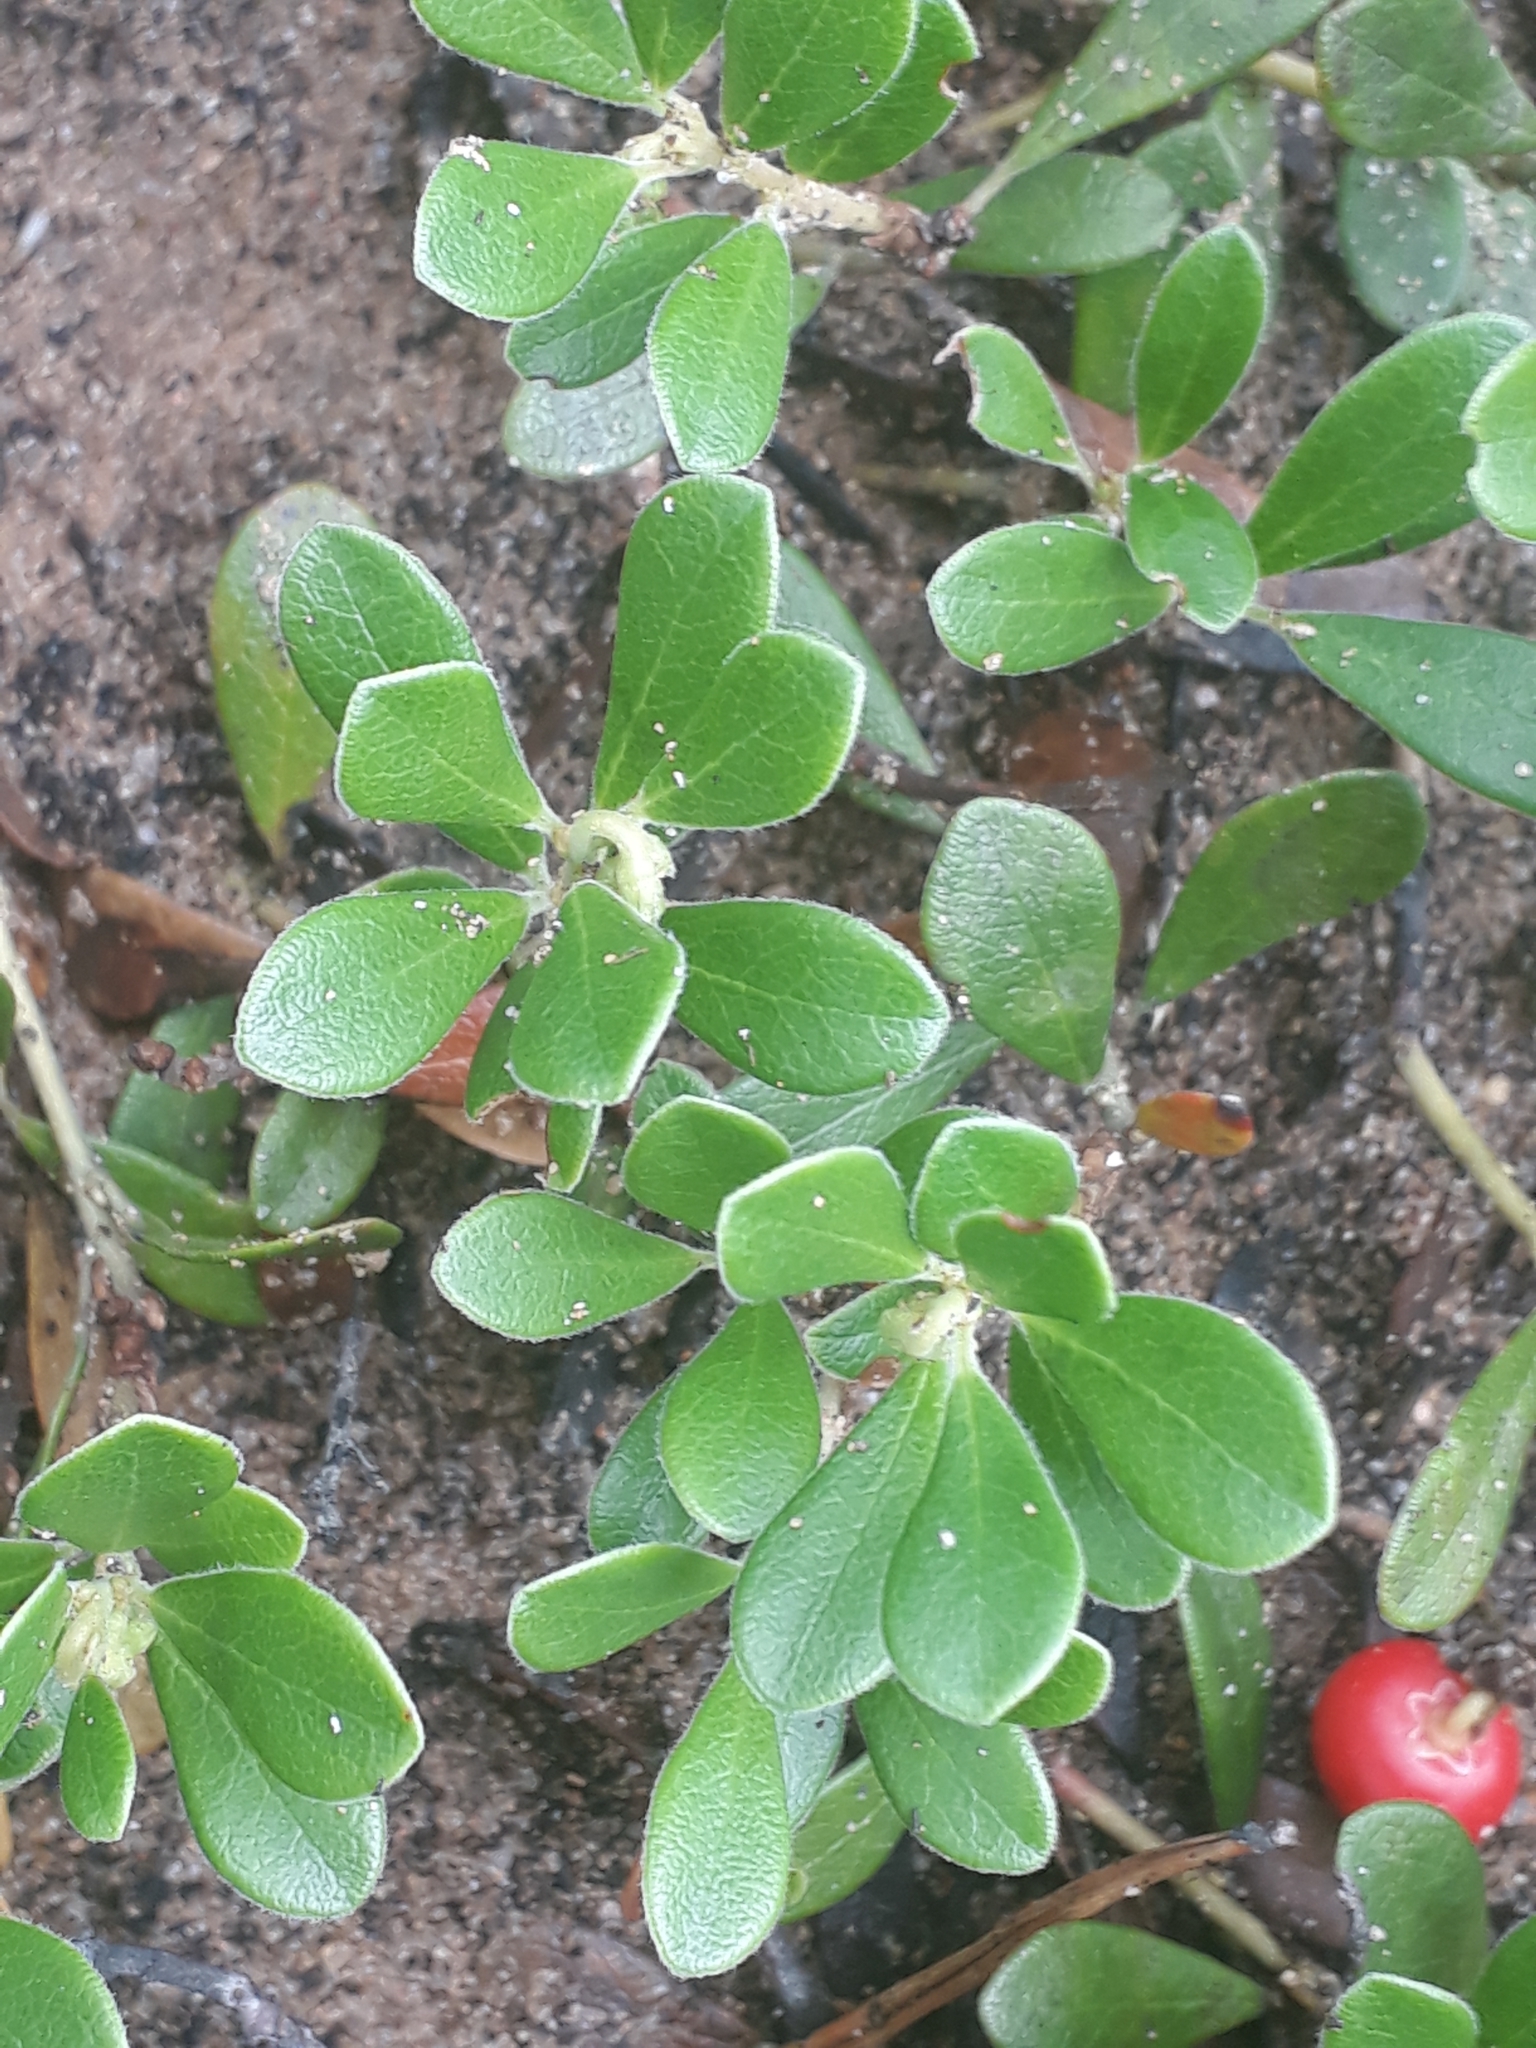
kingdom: Plantae
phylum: Tracheophyta
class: Magnoliopsida
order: Ericales
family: Ericaceae
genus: Arctostaphylos
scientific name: Arctostaphylos uva-ursi
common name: Bearberry
